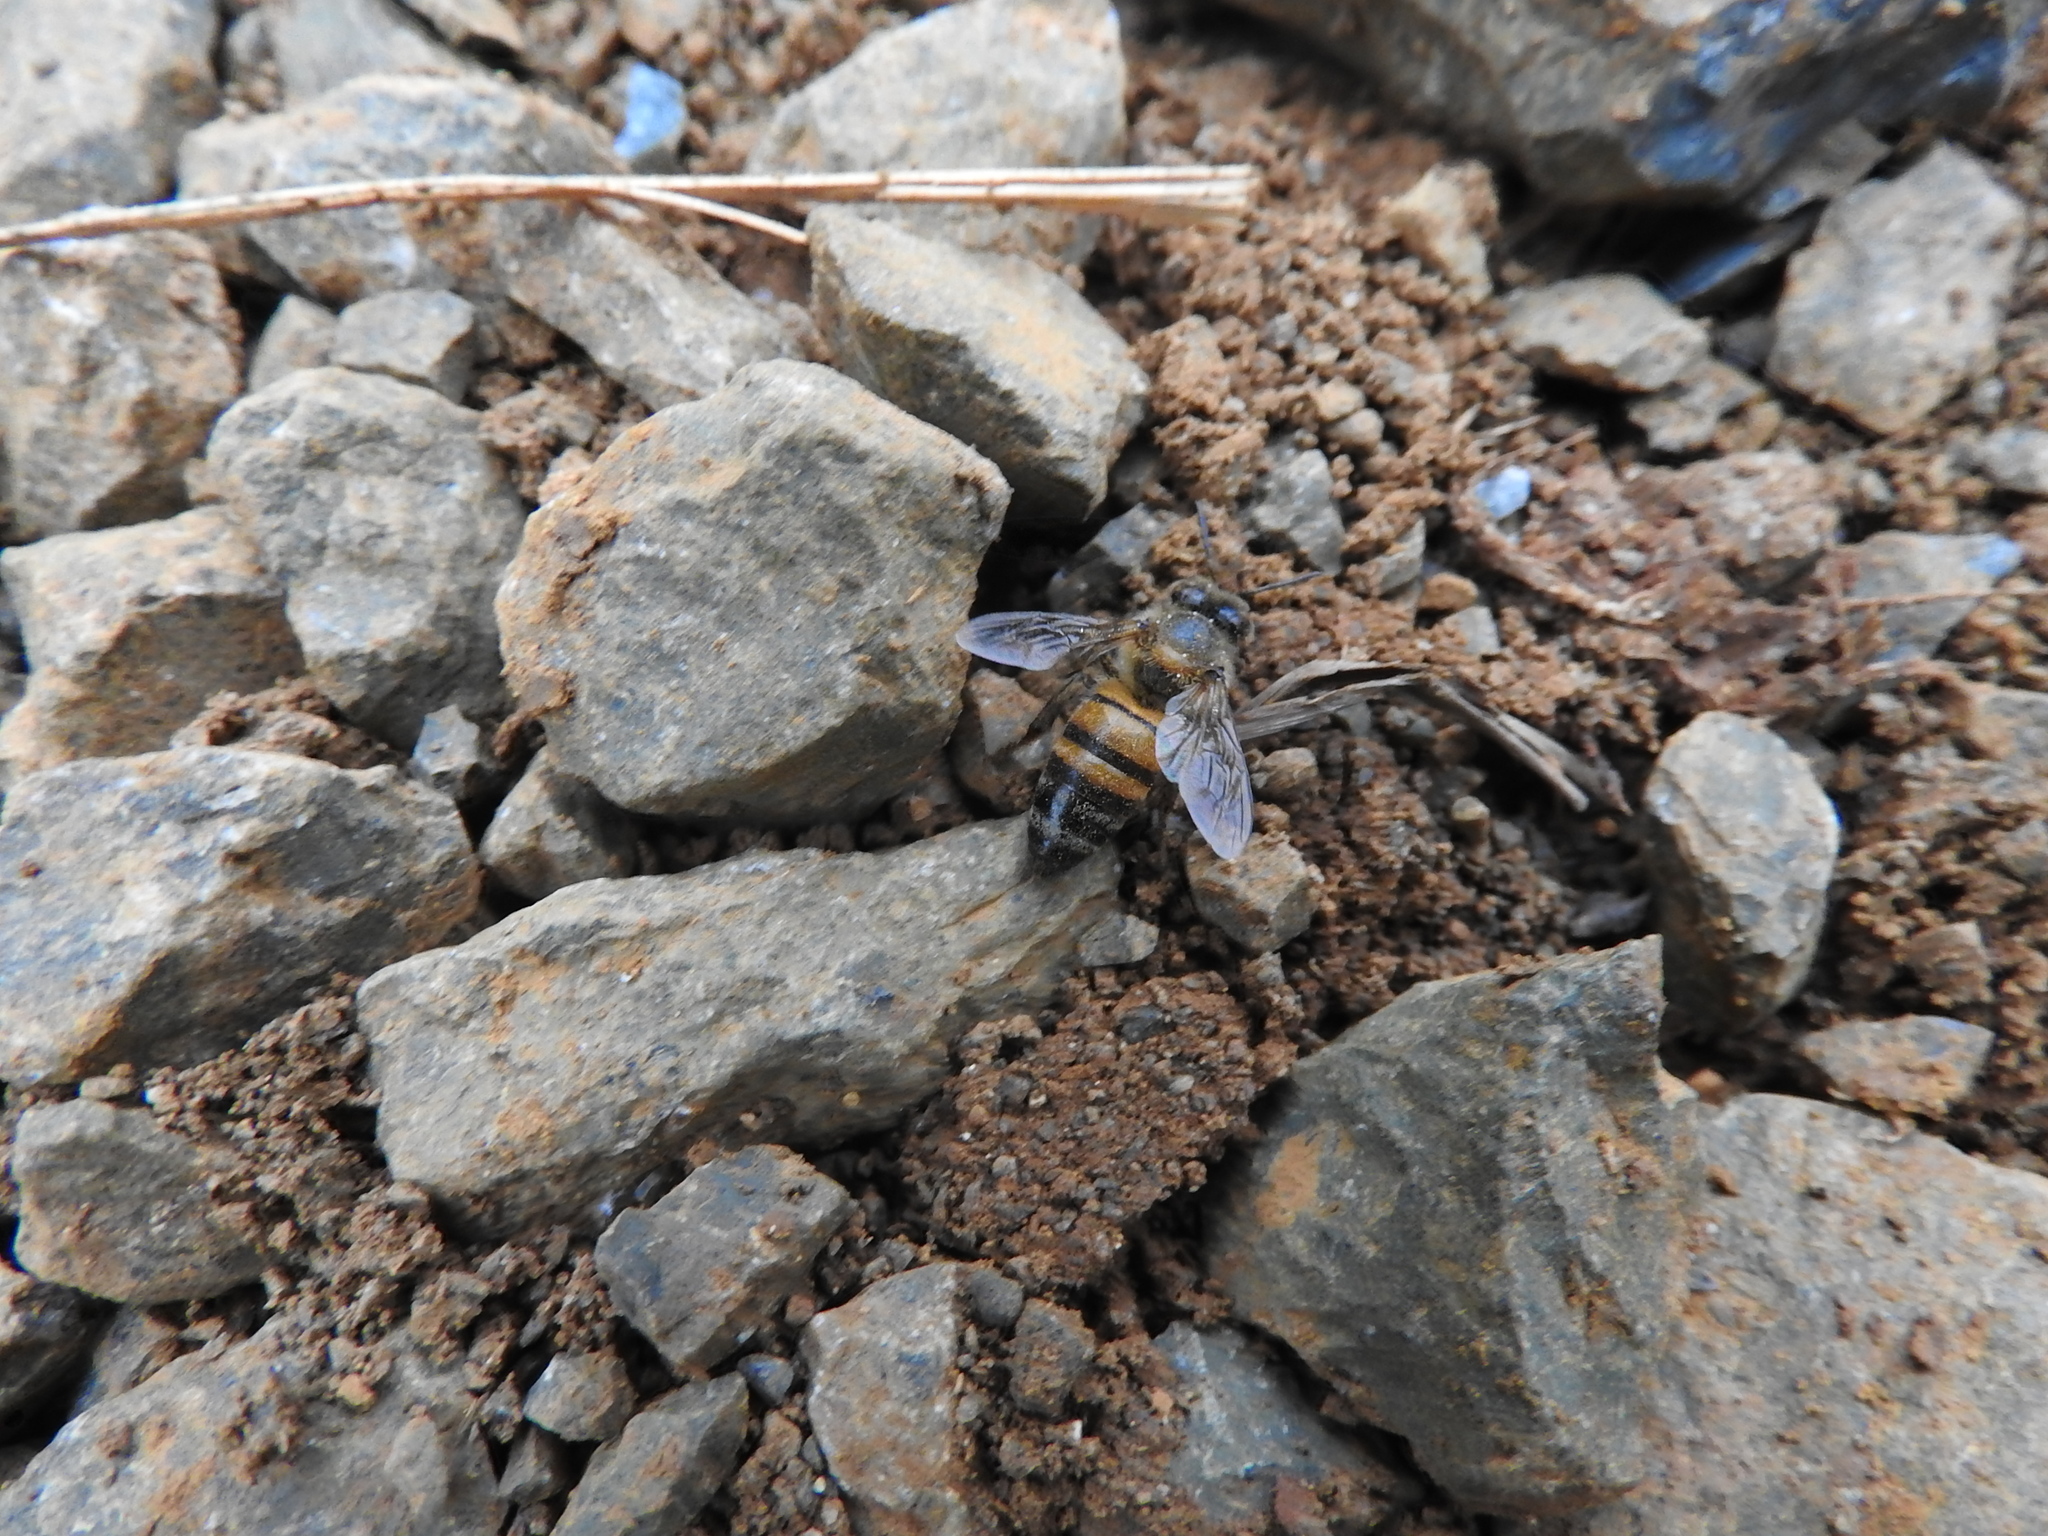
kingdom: Animalia
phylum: Arthropoda
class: Insecta
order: Hymenoptera
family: Apidae
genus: Apis
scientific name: Apis mellifera
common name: Honey bee
